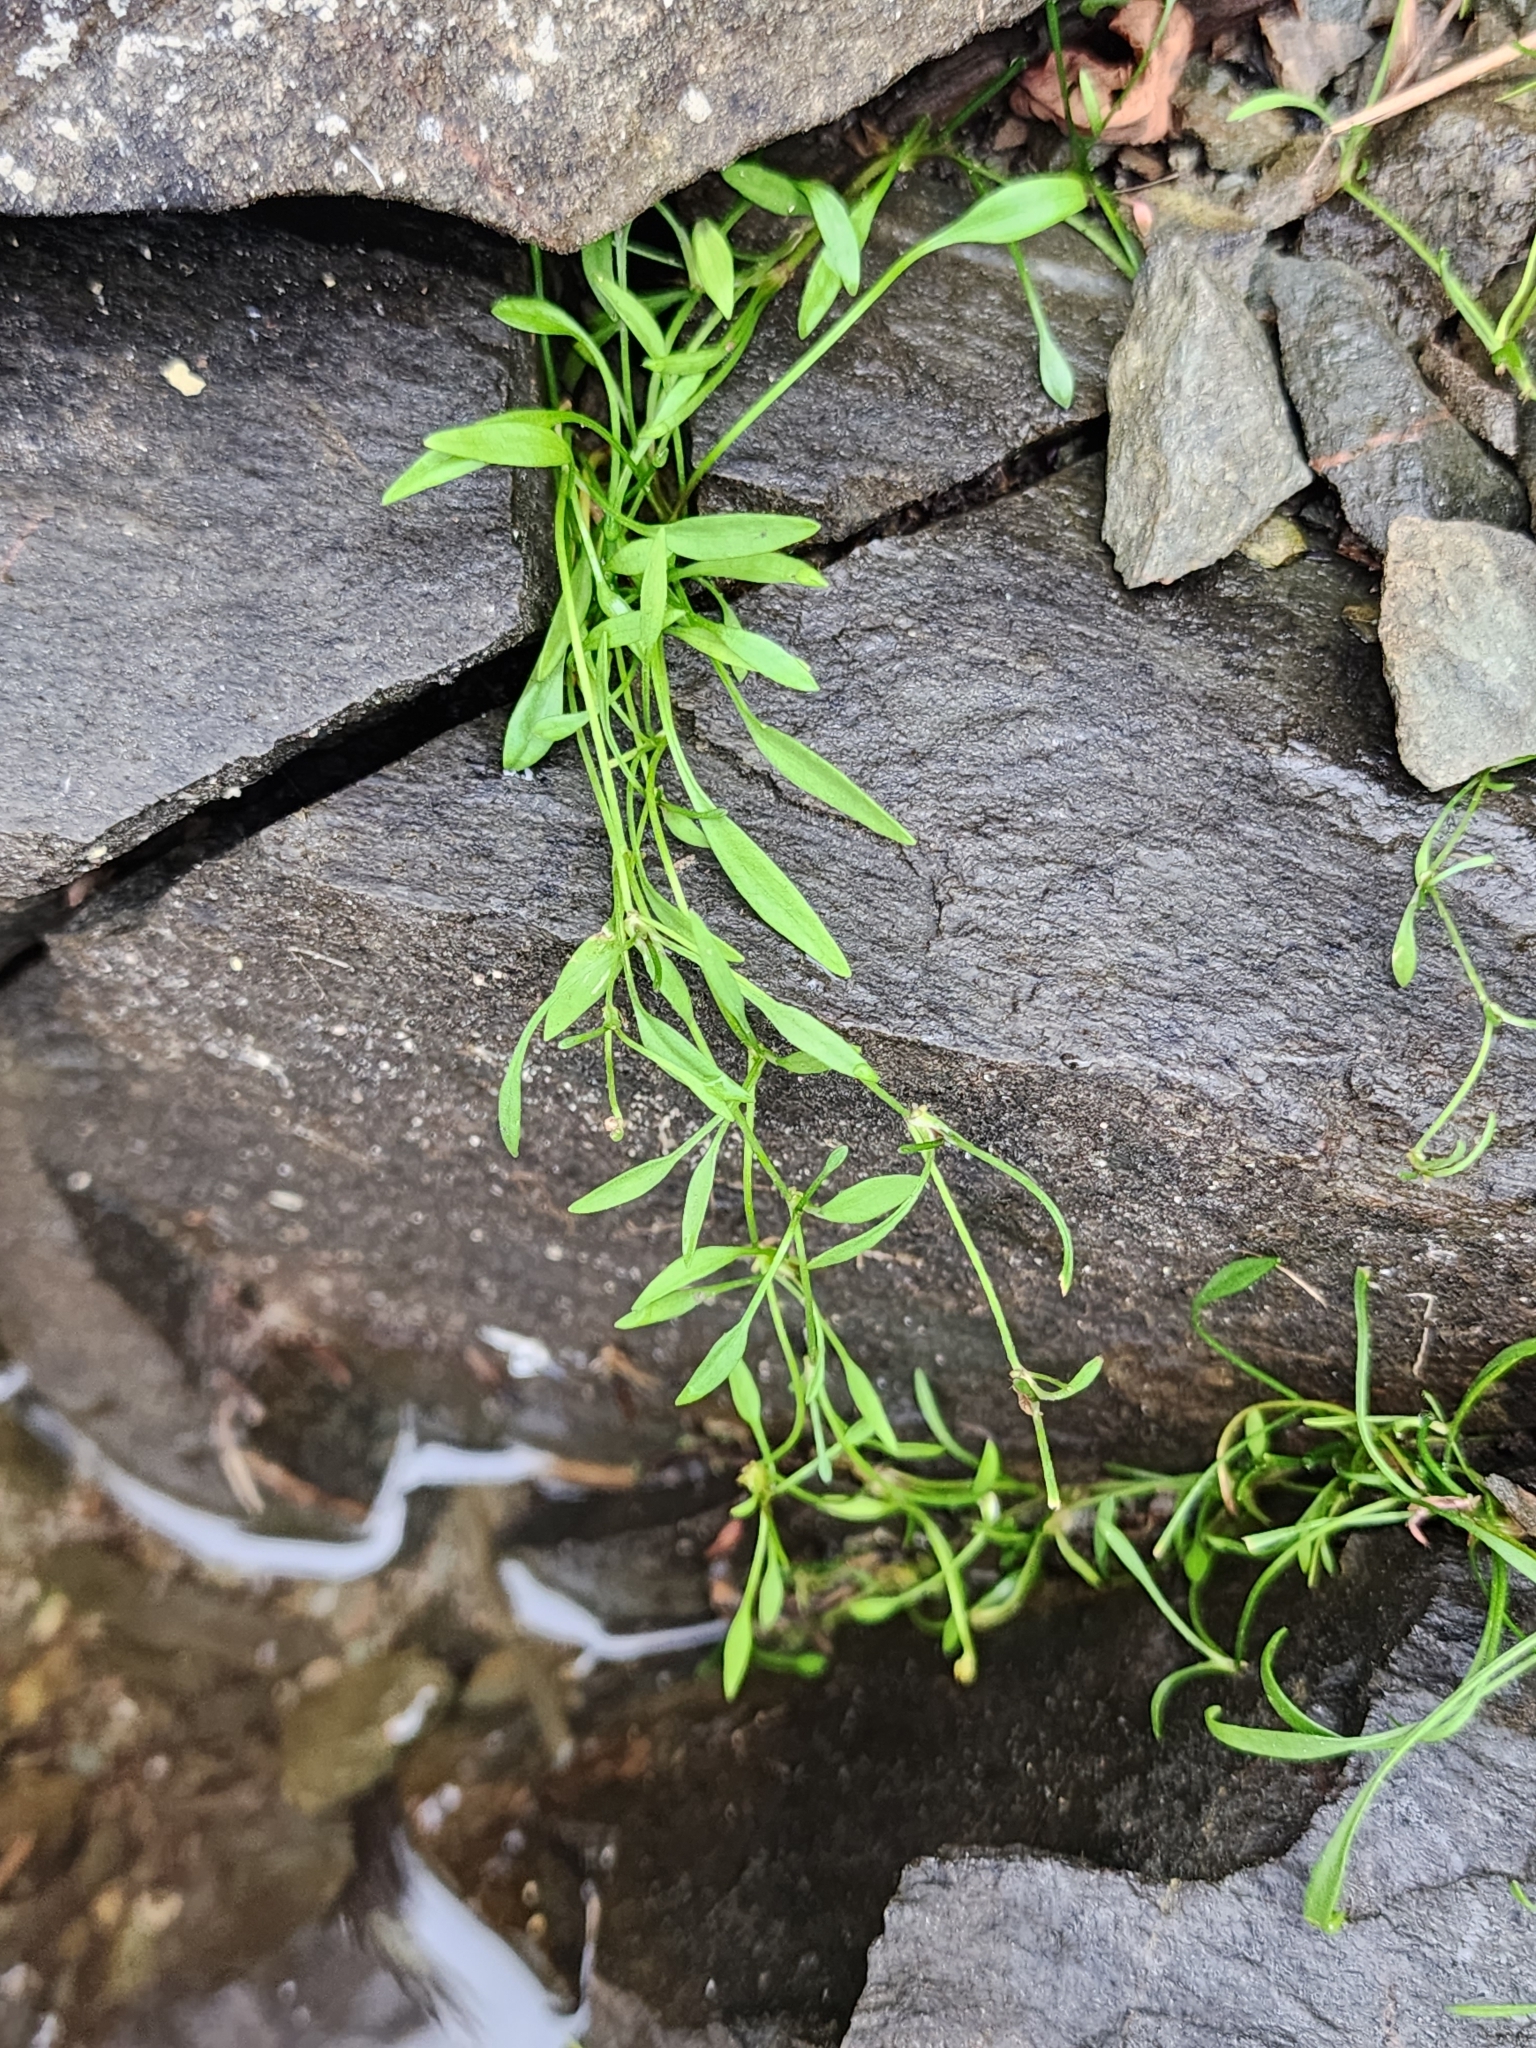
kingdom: Plantae
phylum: Tracheophyta
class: Magnoliopsida
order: Ranunculales
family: Ranunculaceae
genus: Ranunculus
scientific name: Ranunculus flammula
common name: Lesser spearwort
